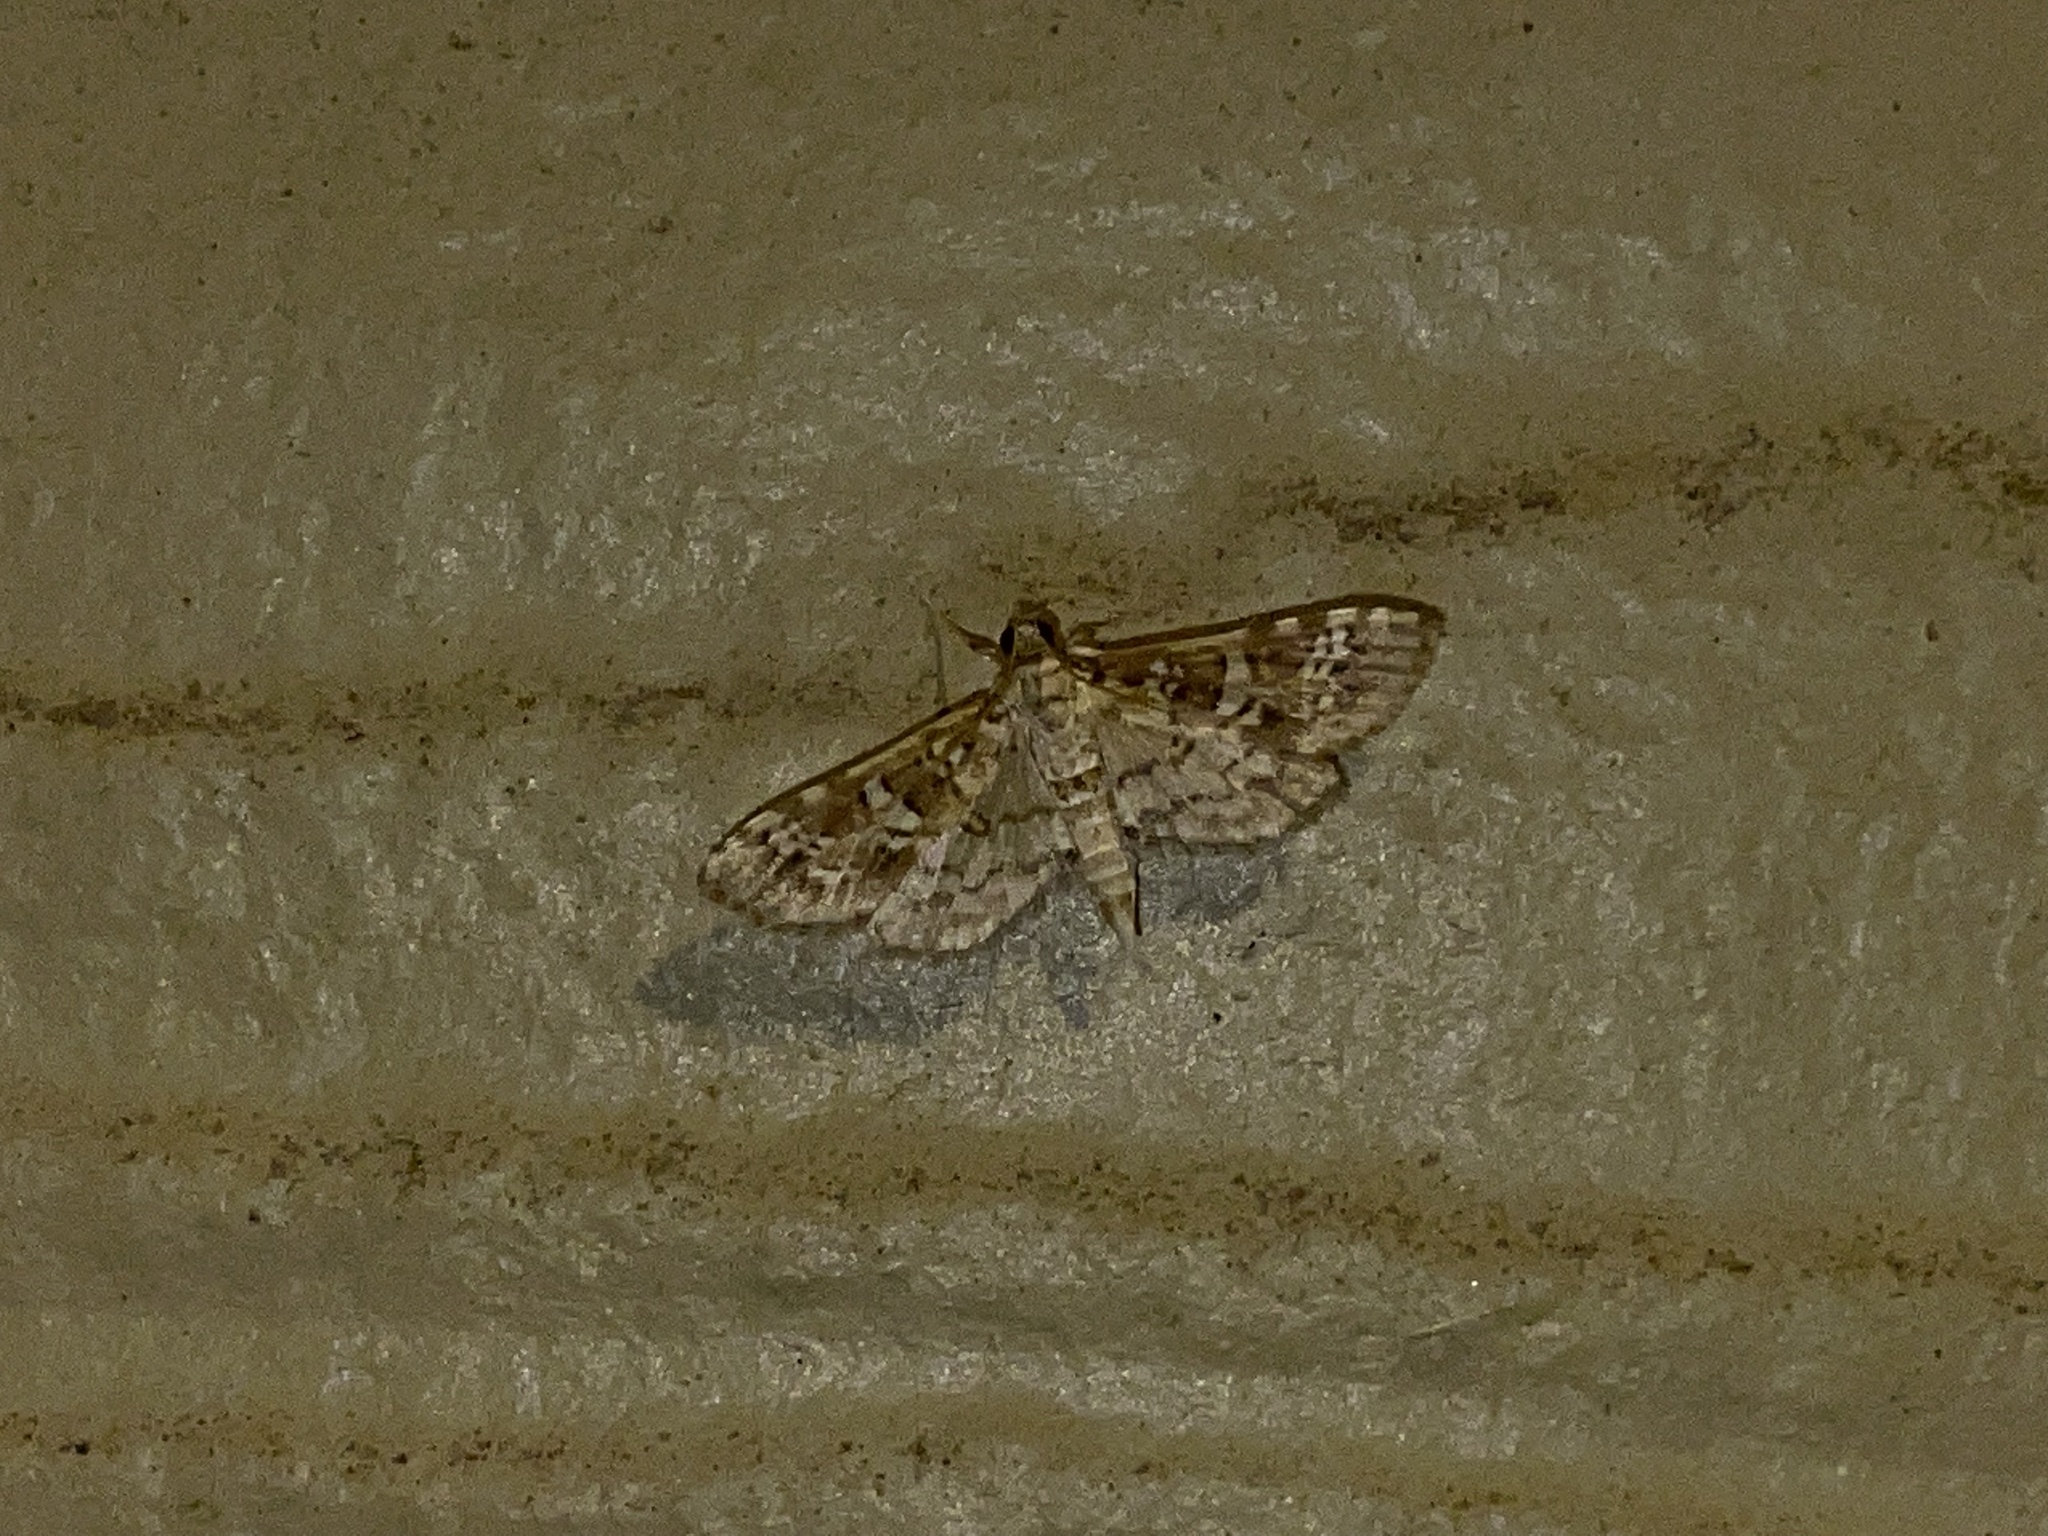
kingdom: Animalia
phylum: Arthropoda
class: Insecta
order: Lepidoptera
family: Crambidae
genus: Samea
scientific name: Samea multiplicalis
